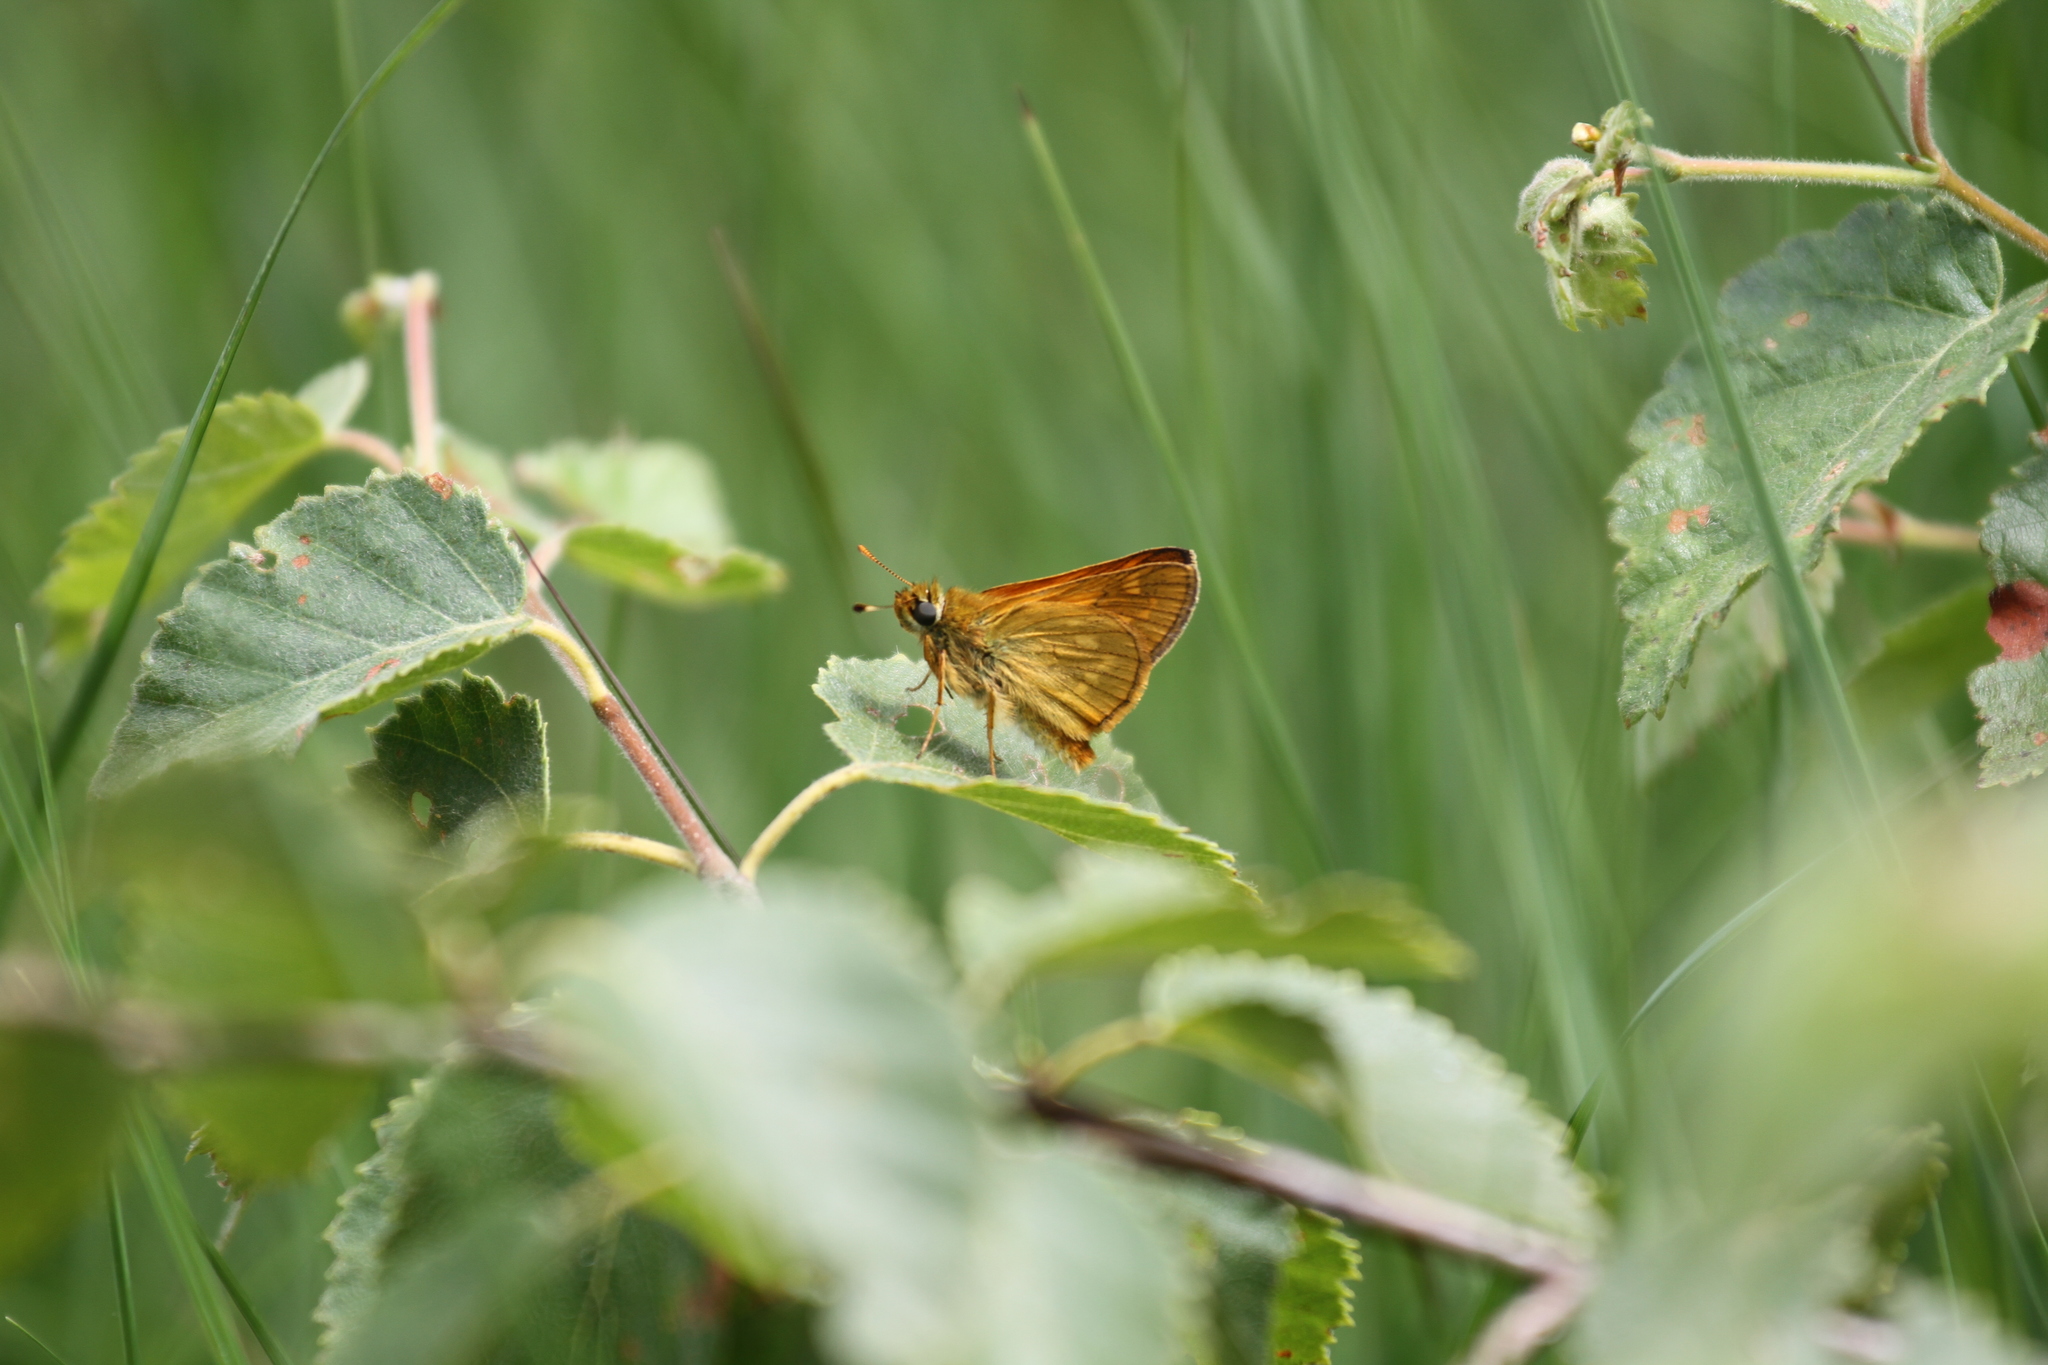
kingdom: Animalia
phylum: Arthropoda
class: Insecta
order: Lepidoptera
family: Hesperiidae
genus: Ochlodes
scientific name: Ochlodes venata
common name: Large skipper
